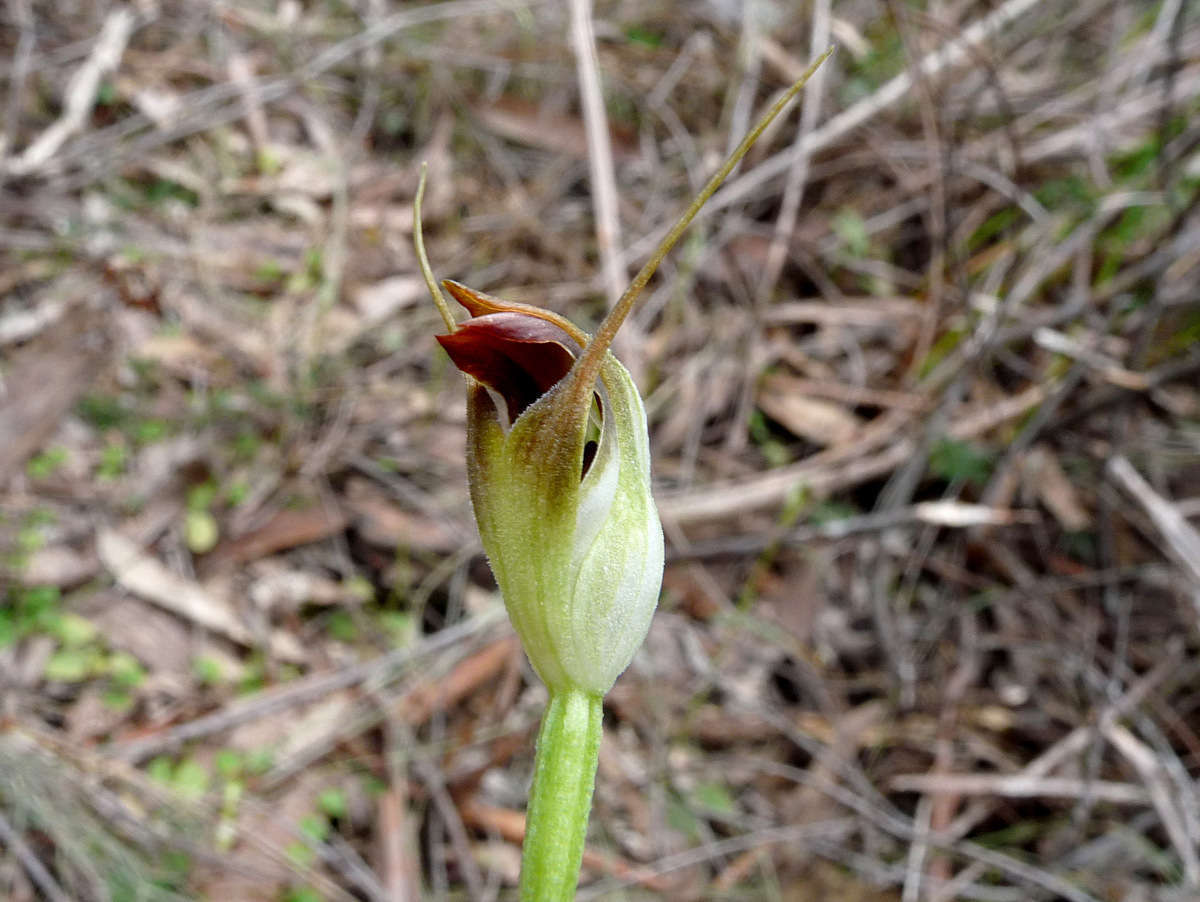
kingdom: Plantae
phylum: Tracheophyta
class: Liliopsida
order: Asparagales
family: Orchidaceae
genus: Pterostylis
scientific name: Pterostylis pedunculata
